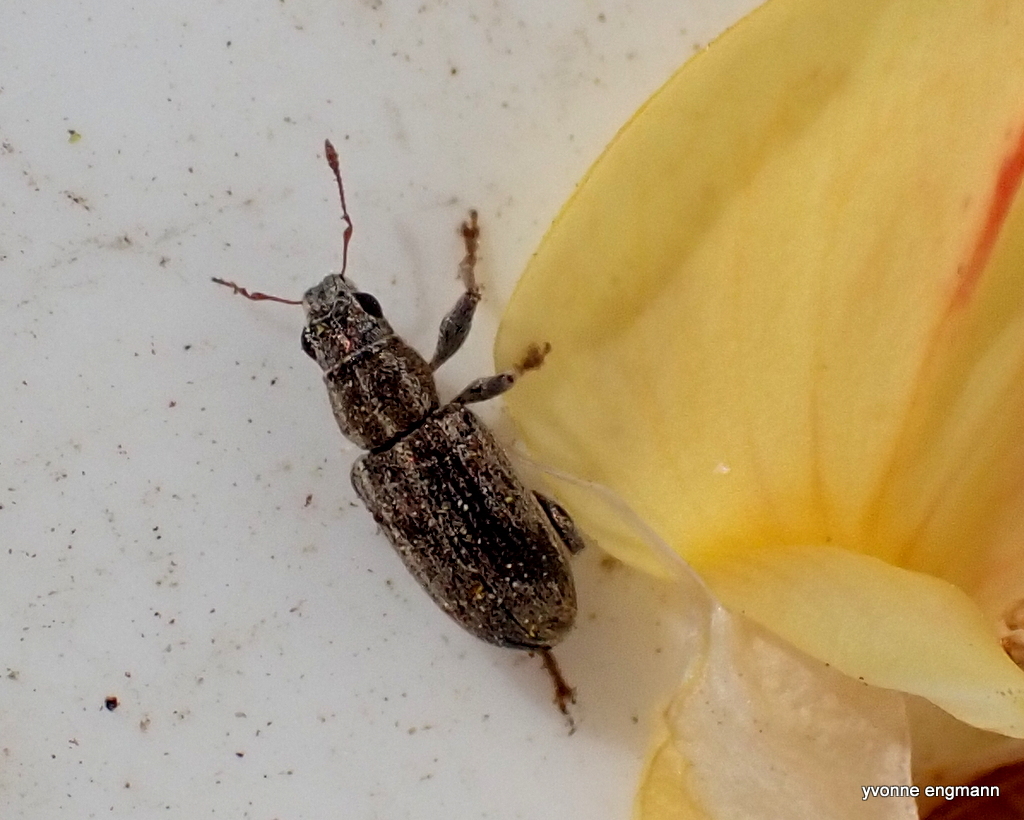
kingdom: Animalia
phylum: Arthropoda
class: Insecta
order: Coleoptera
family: Curculionidae
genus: Sitona
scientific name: Sitona lineatus
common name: Weevil
